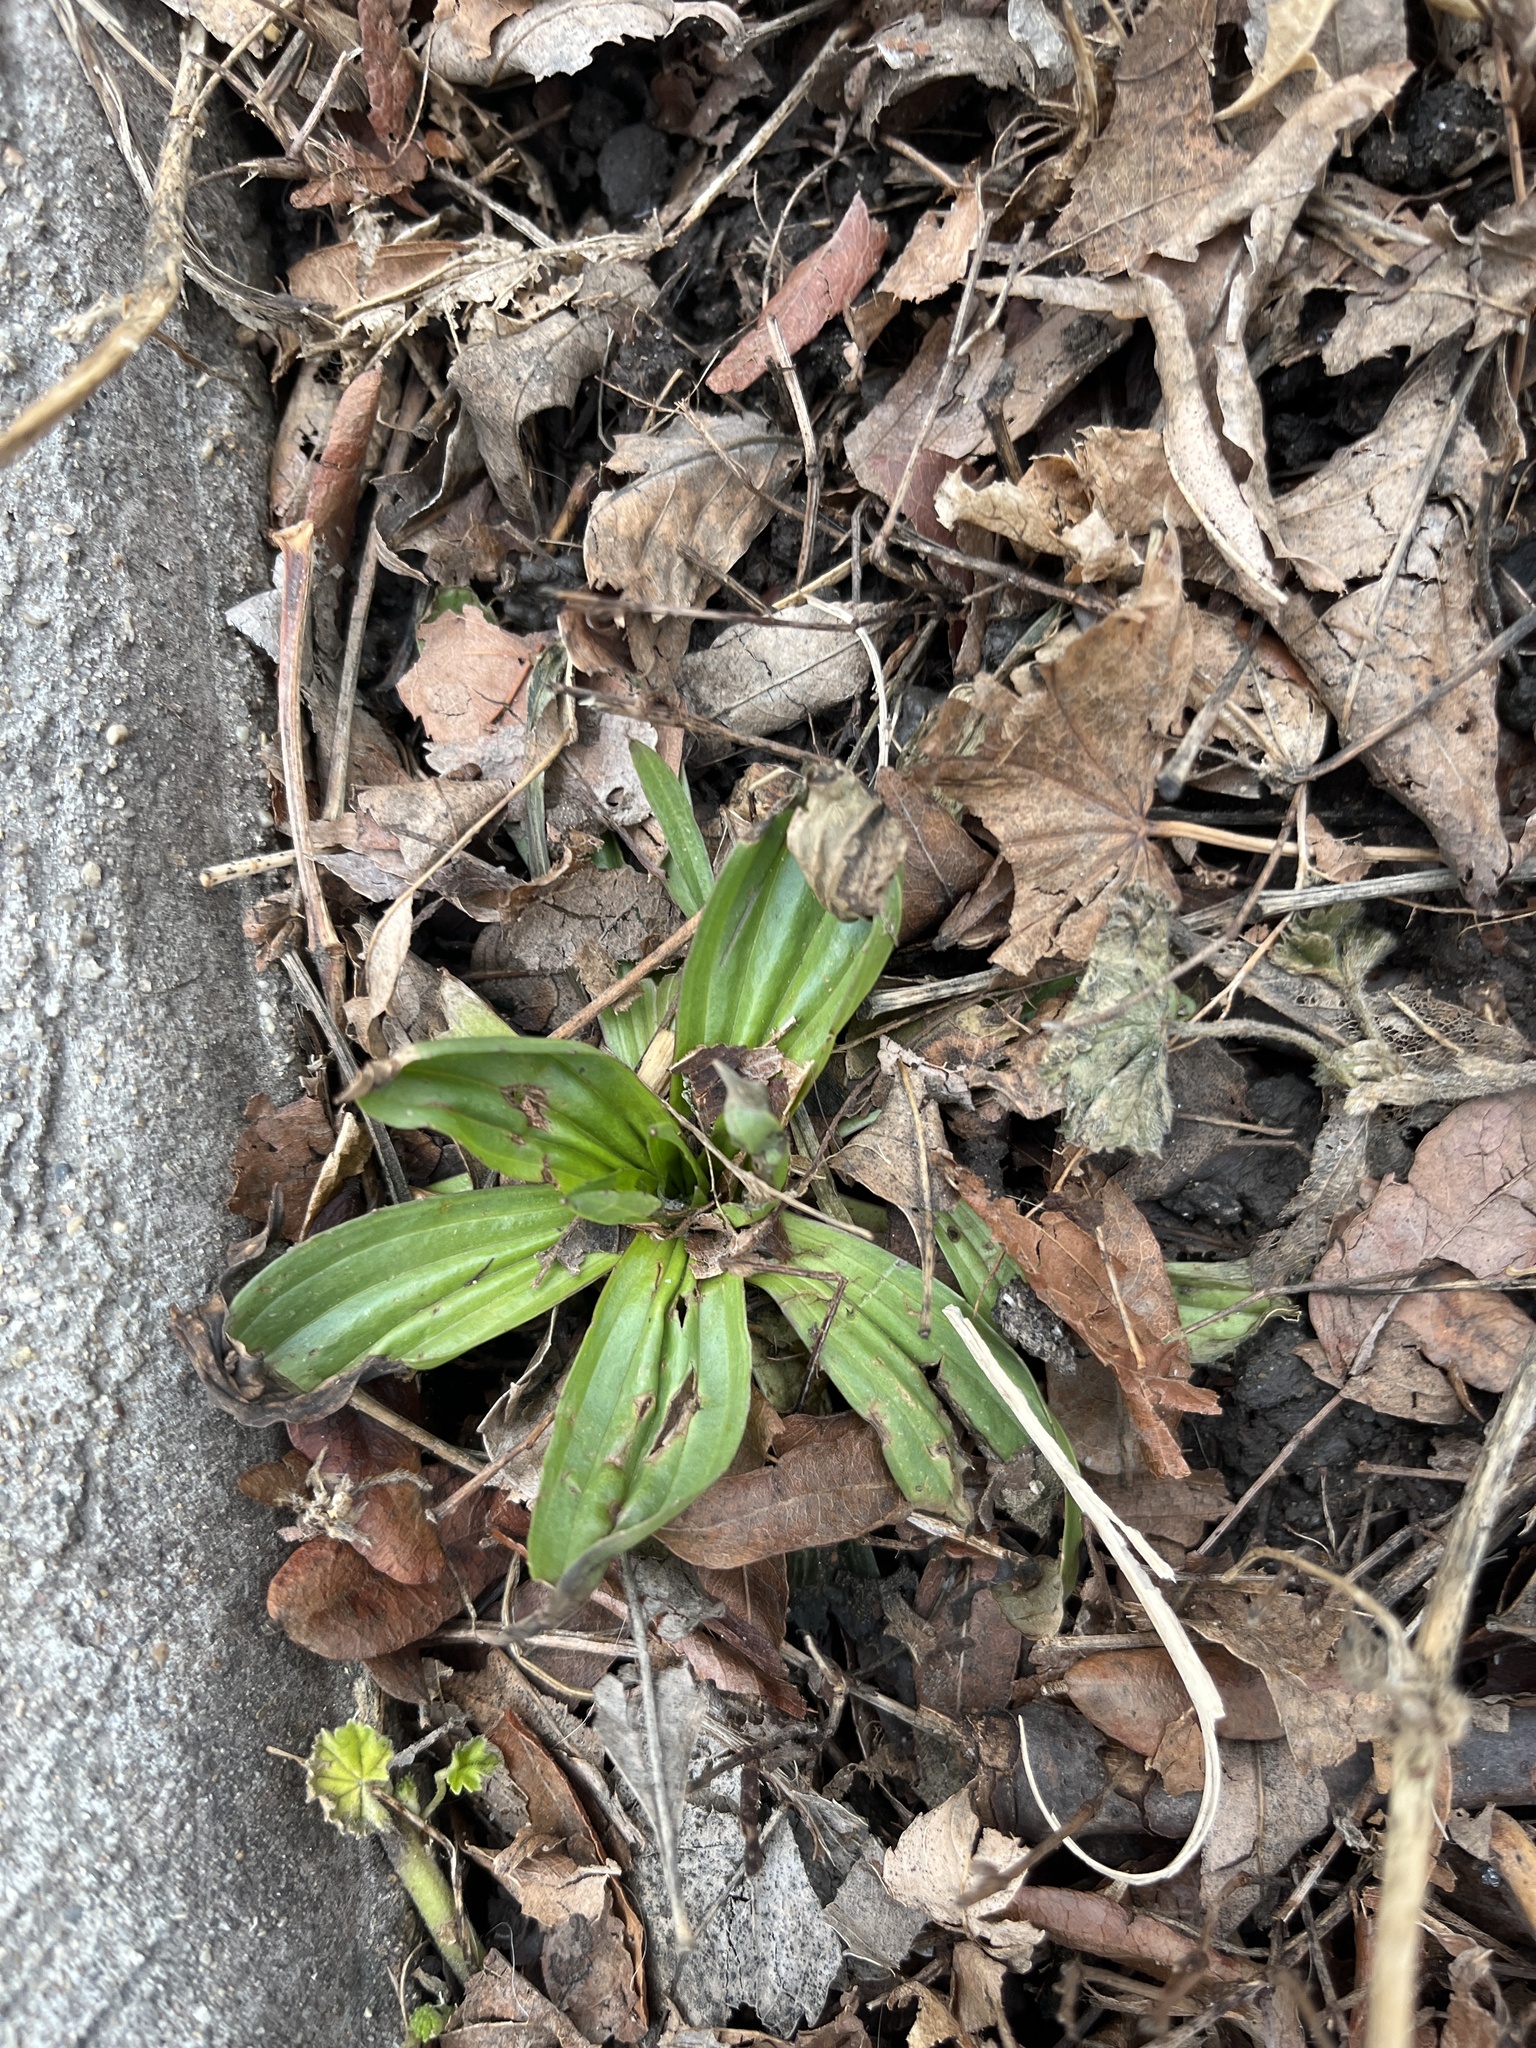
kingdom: Plantae
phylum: Tracheophyta
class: Magnoliopsida
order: Lamiales
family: Plantaginaceae
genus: Plantago
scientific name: Plantago lanceolata
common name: Ribwort plantain
